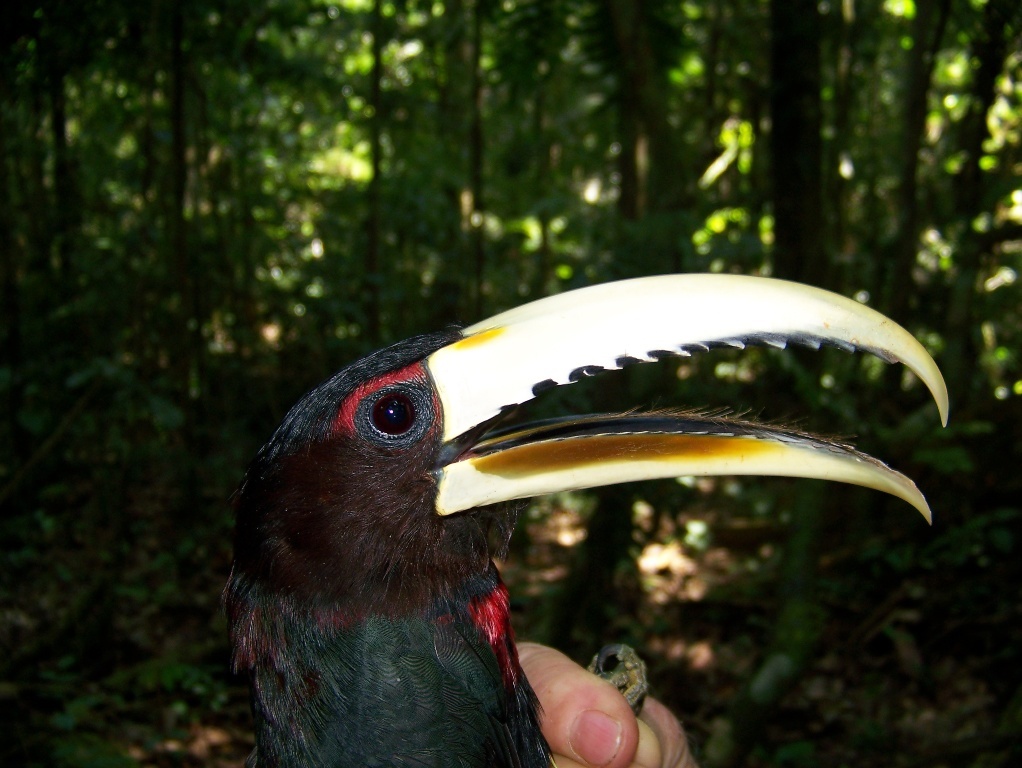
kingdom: Animalia
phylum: Chordata
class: Aves
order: Piciformes
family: Ramphastidae
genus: Pteroglossus
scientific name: Pteroglossus azara
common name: Ivory-billed aracari
